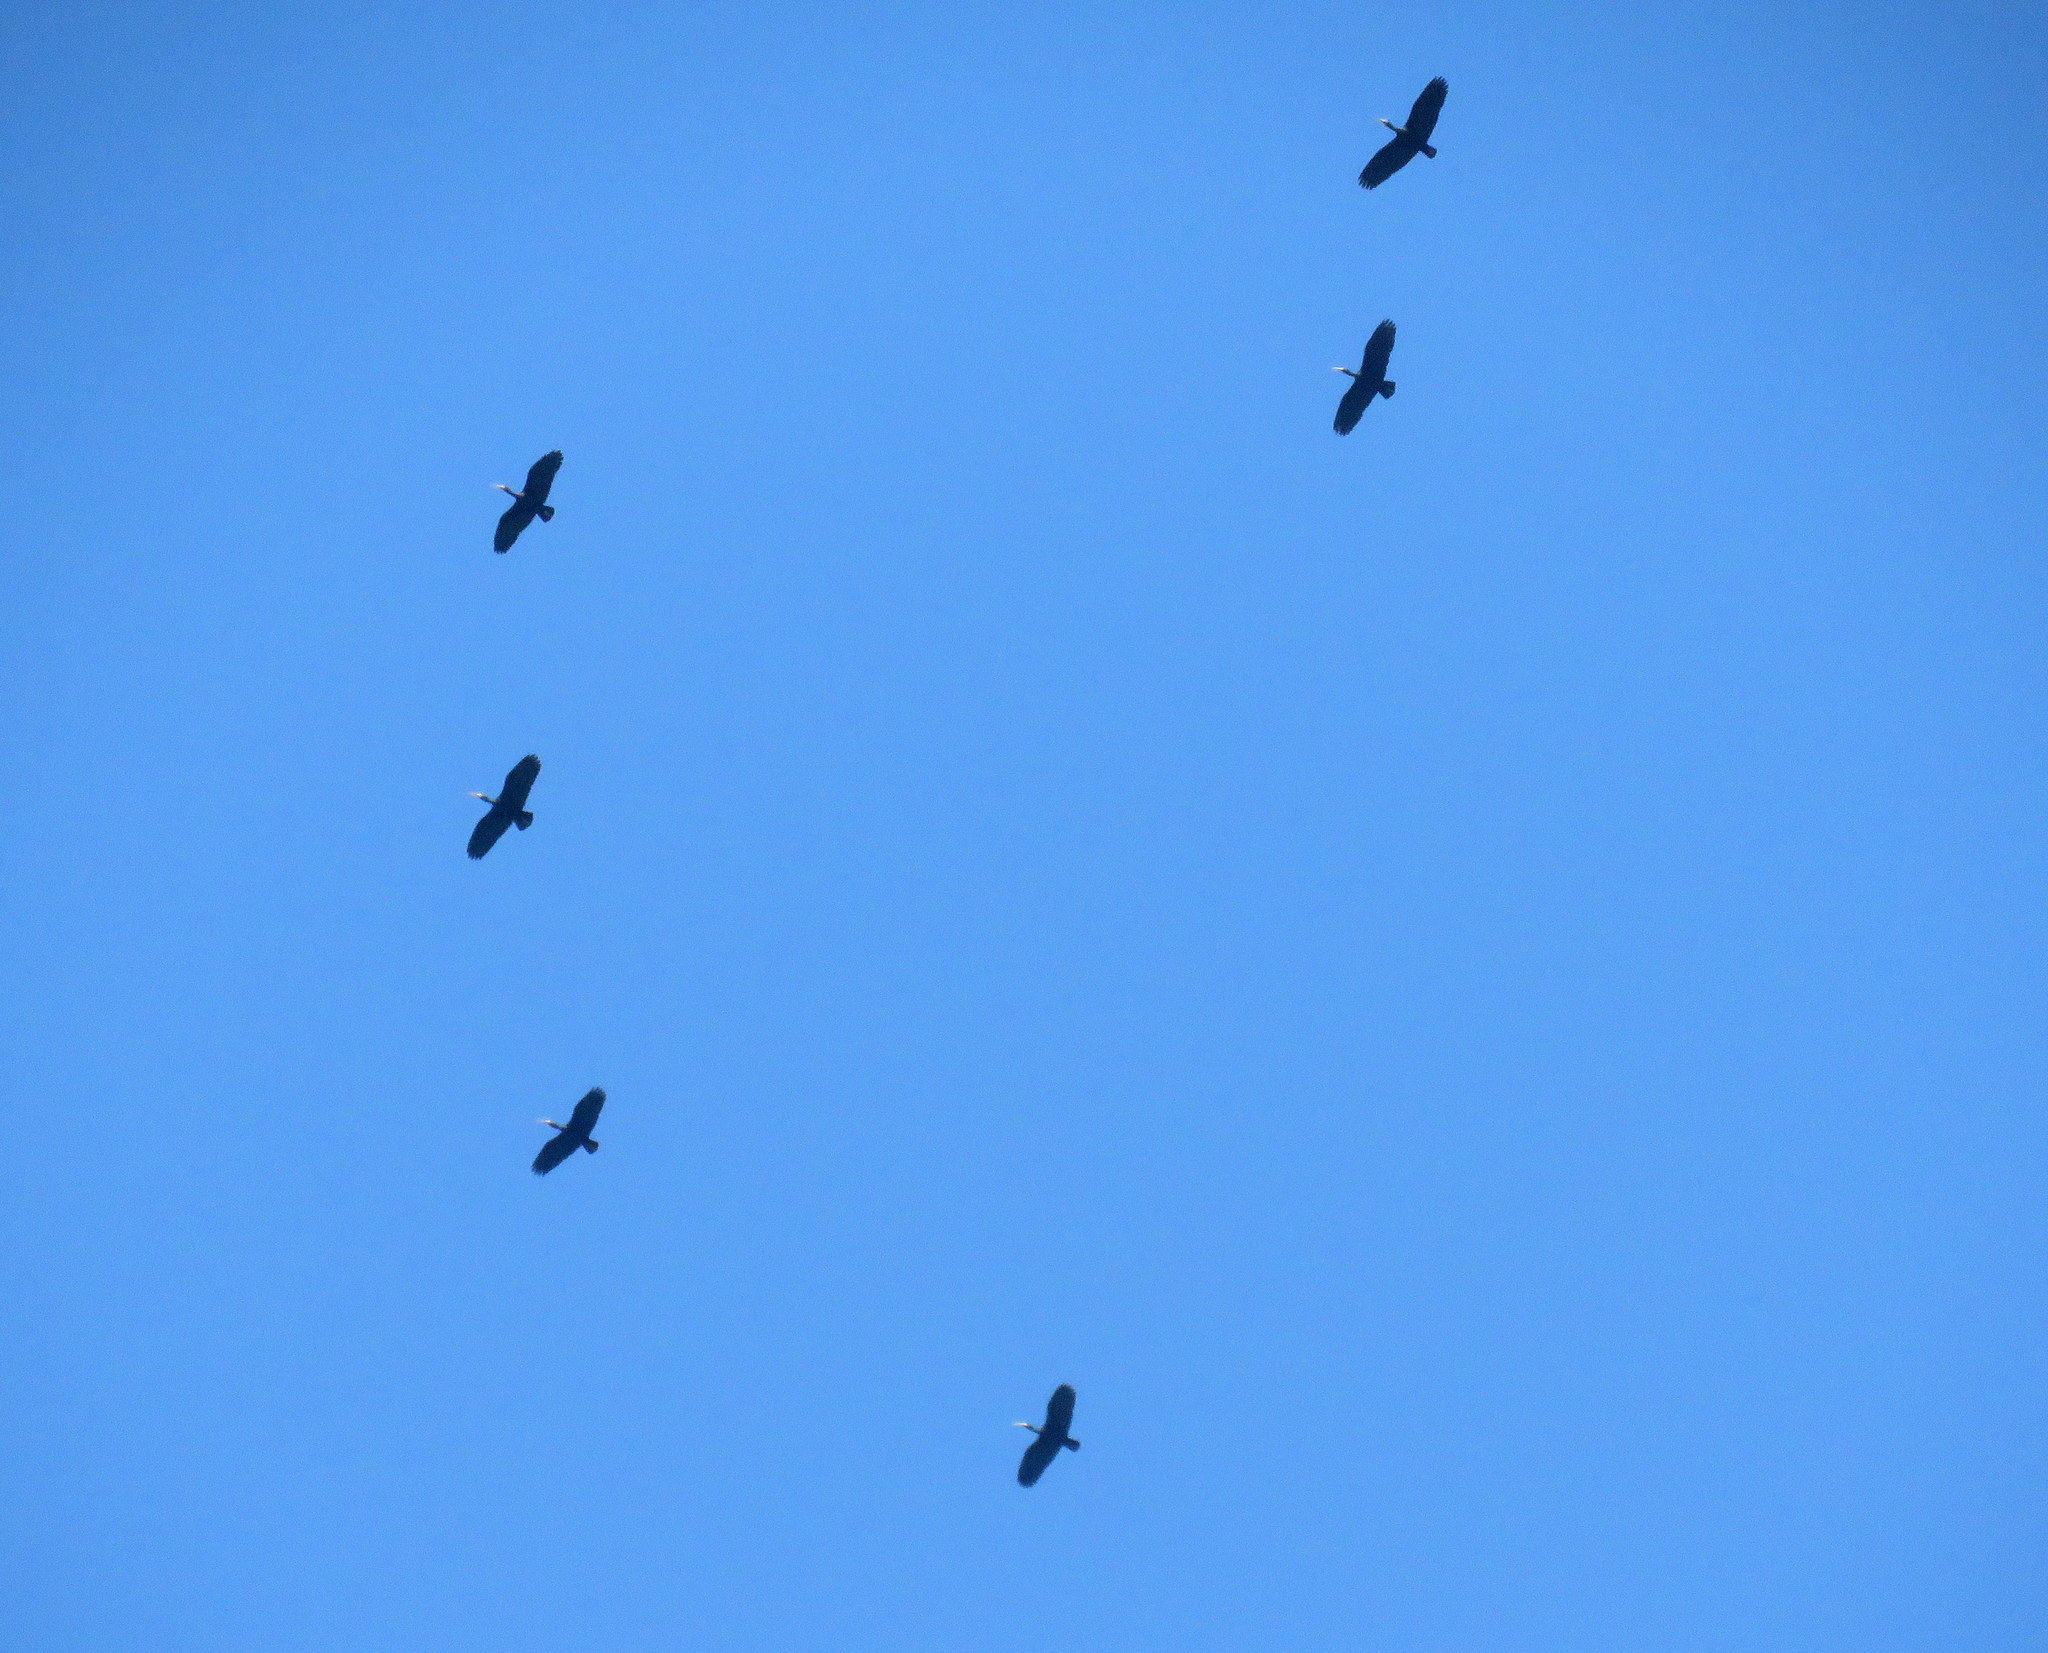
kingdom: Animalia
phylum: Chordata
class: Aves
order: Pelecaniformes
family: Threskiornithidae
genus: Phimosus
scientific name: Phimosus infuscatus
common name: Bare-faced ibis
